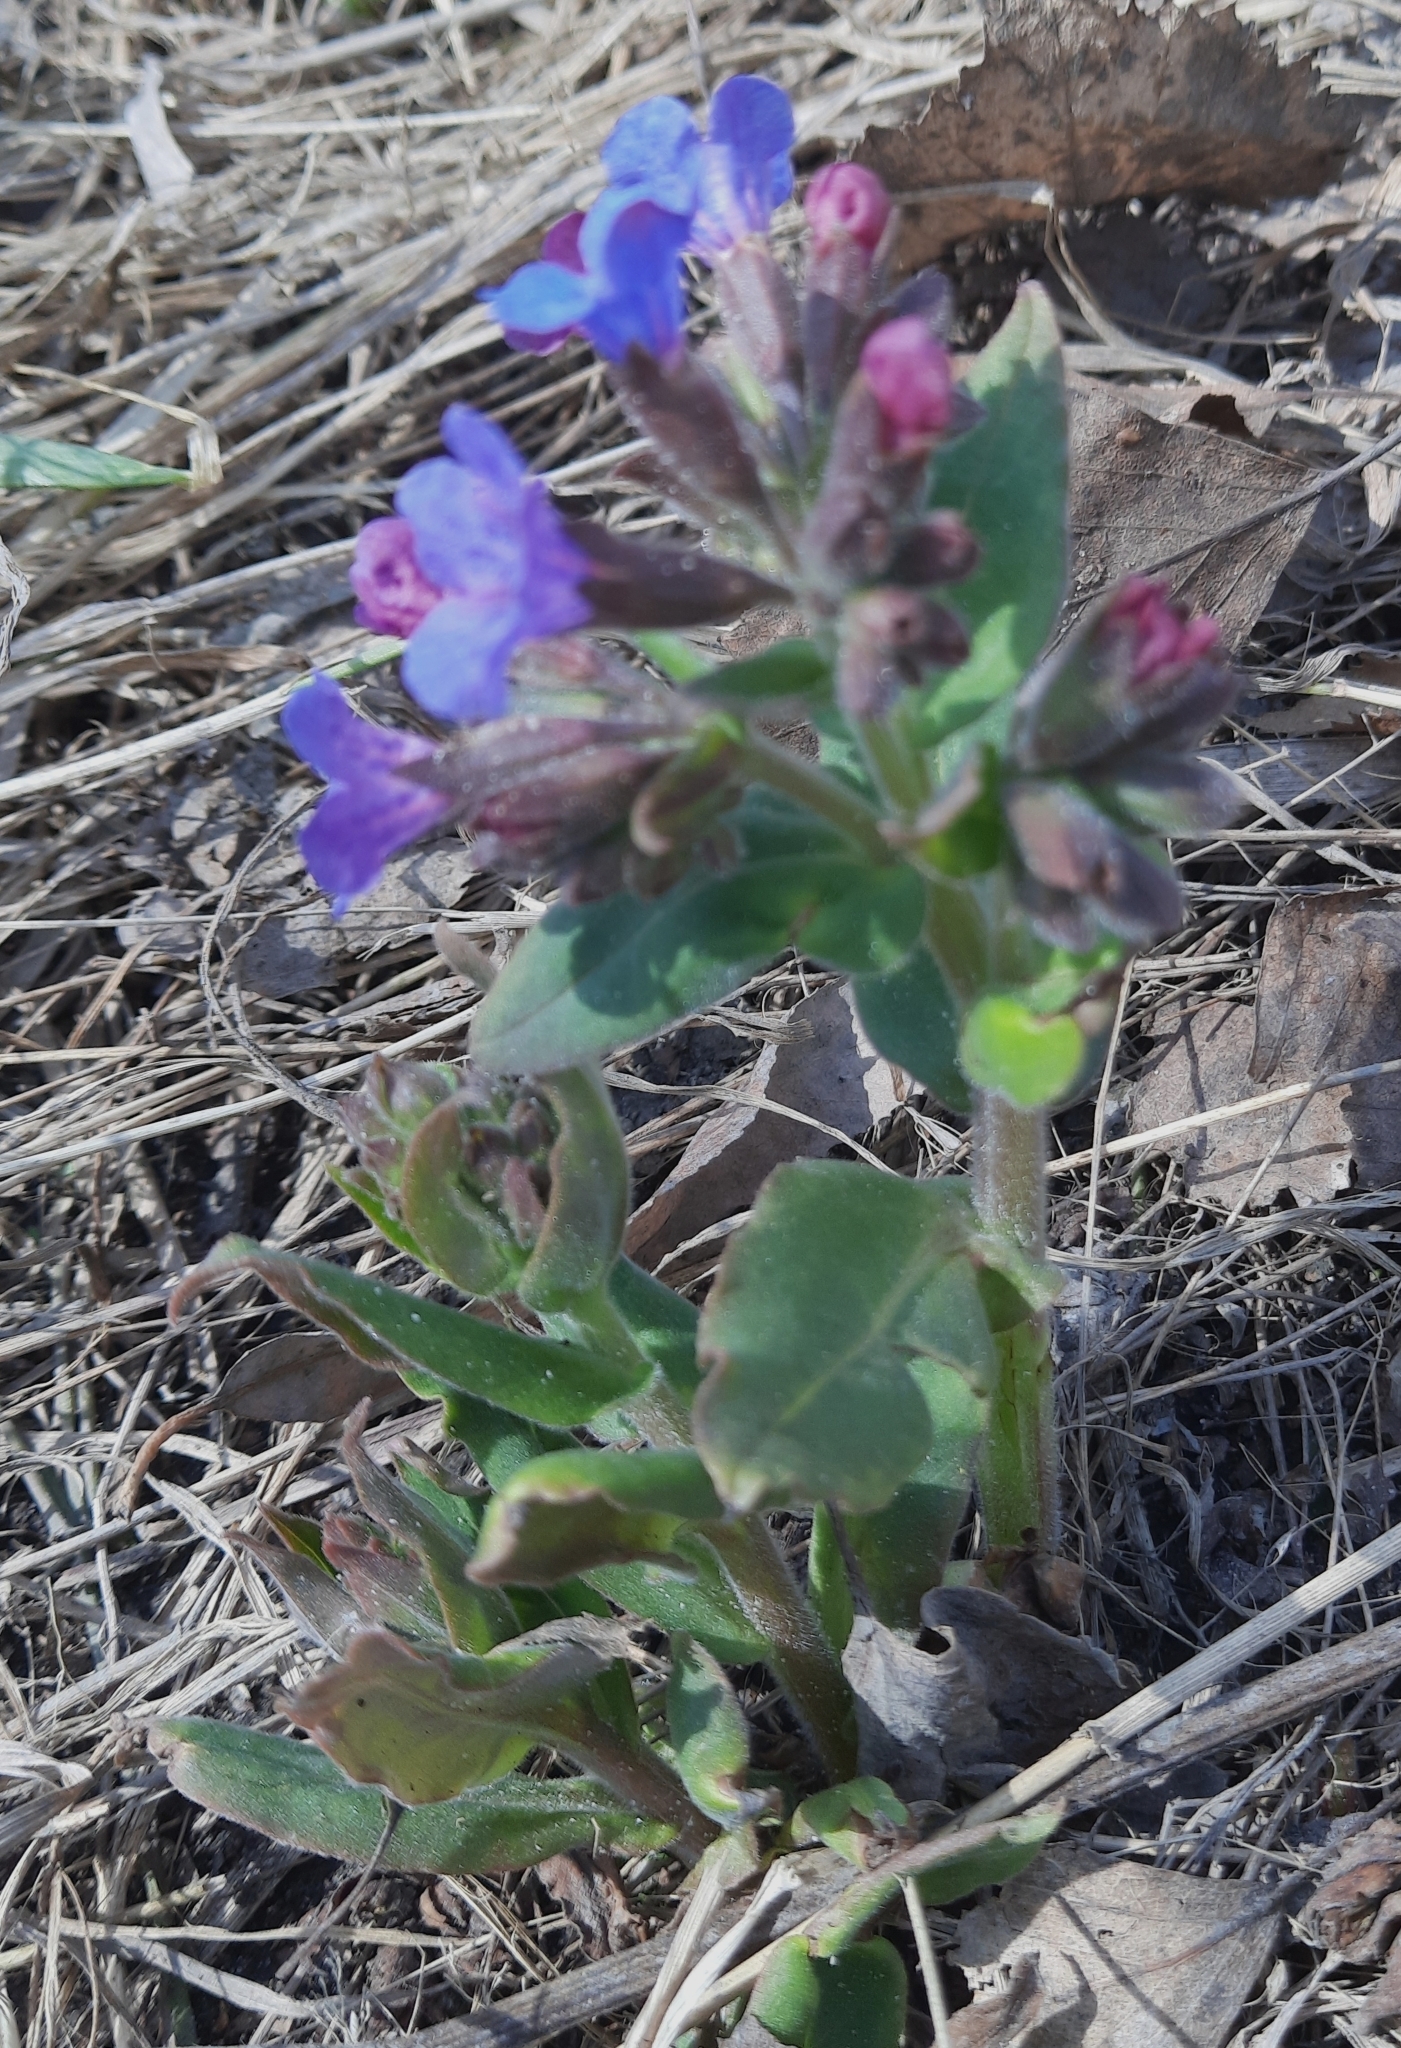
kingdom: Plantae
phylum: Tracheophyta
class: Magnoliopsida
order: Boraginales
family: Boraginaceae
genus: Pulmonaria
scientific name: Pulmonaria mollis
